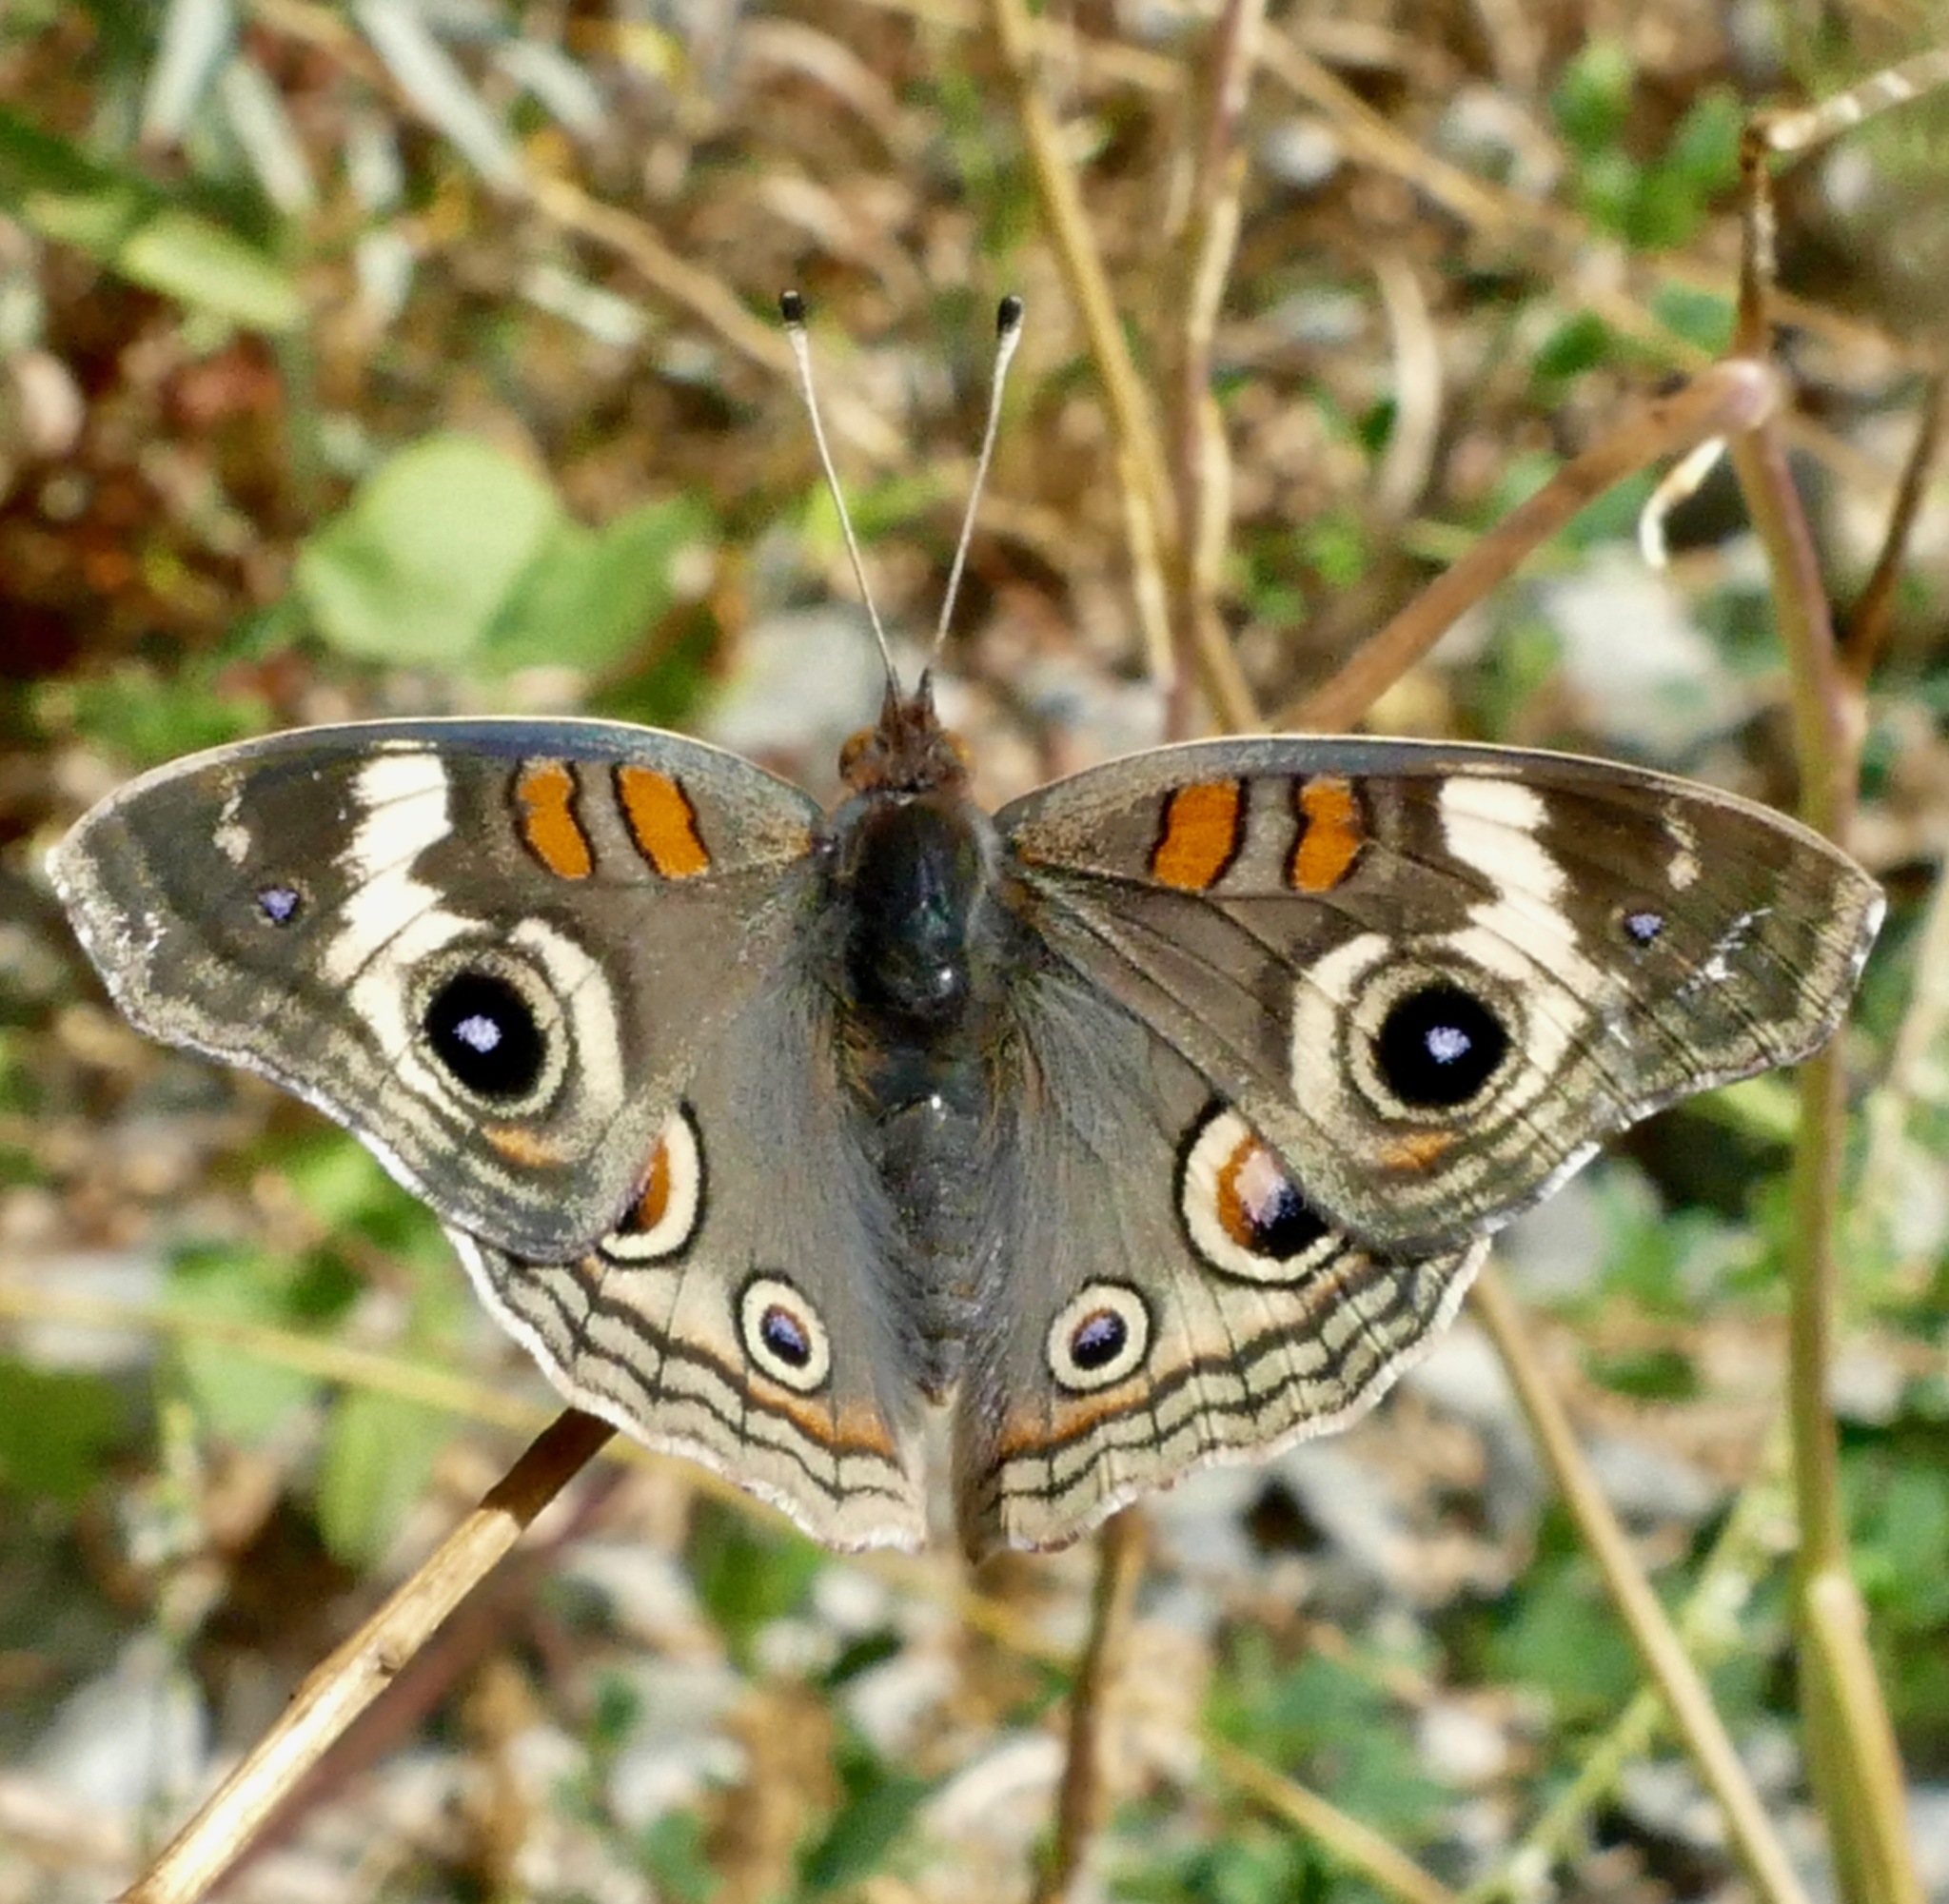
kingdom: Animalia
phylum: Arthropoda
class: Insecta
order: Lepidoptera
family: Nymphalidae
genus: Junonia
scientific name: Junonia grisea
